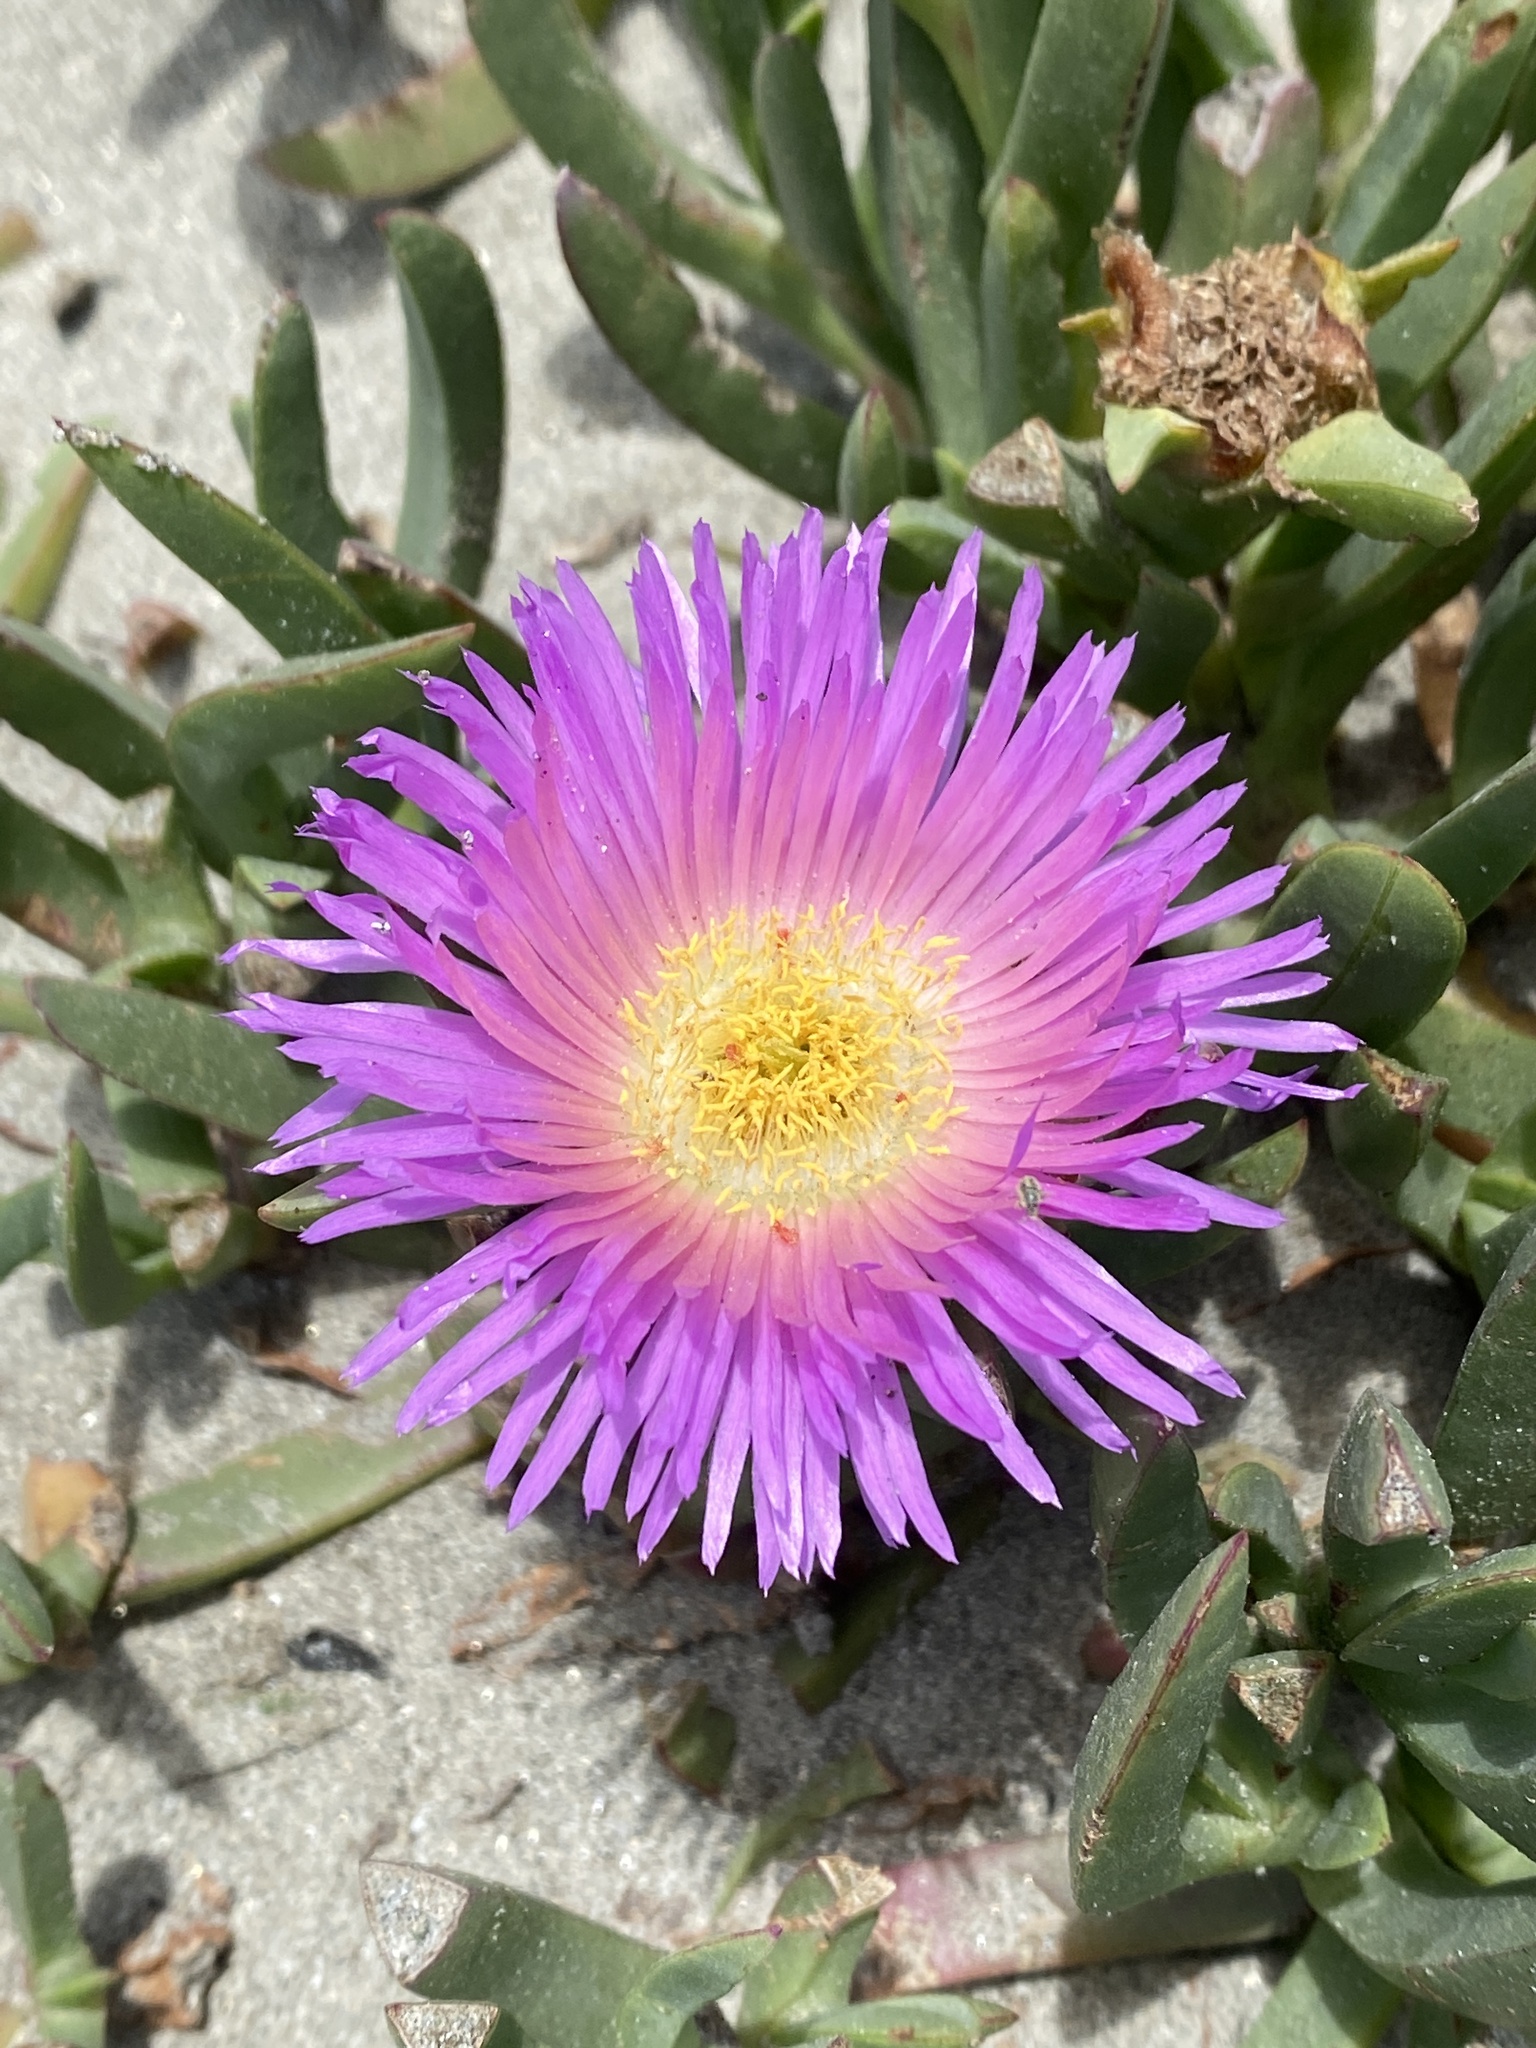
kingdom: Plantae
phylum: Tracheophyta
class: Magnoliopsida
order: Caryophyllales
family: Aizoaceae
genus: Carpobrotus
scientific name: Carpobrotus chilensis
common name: Sea fig
